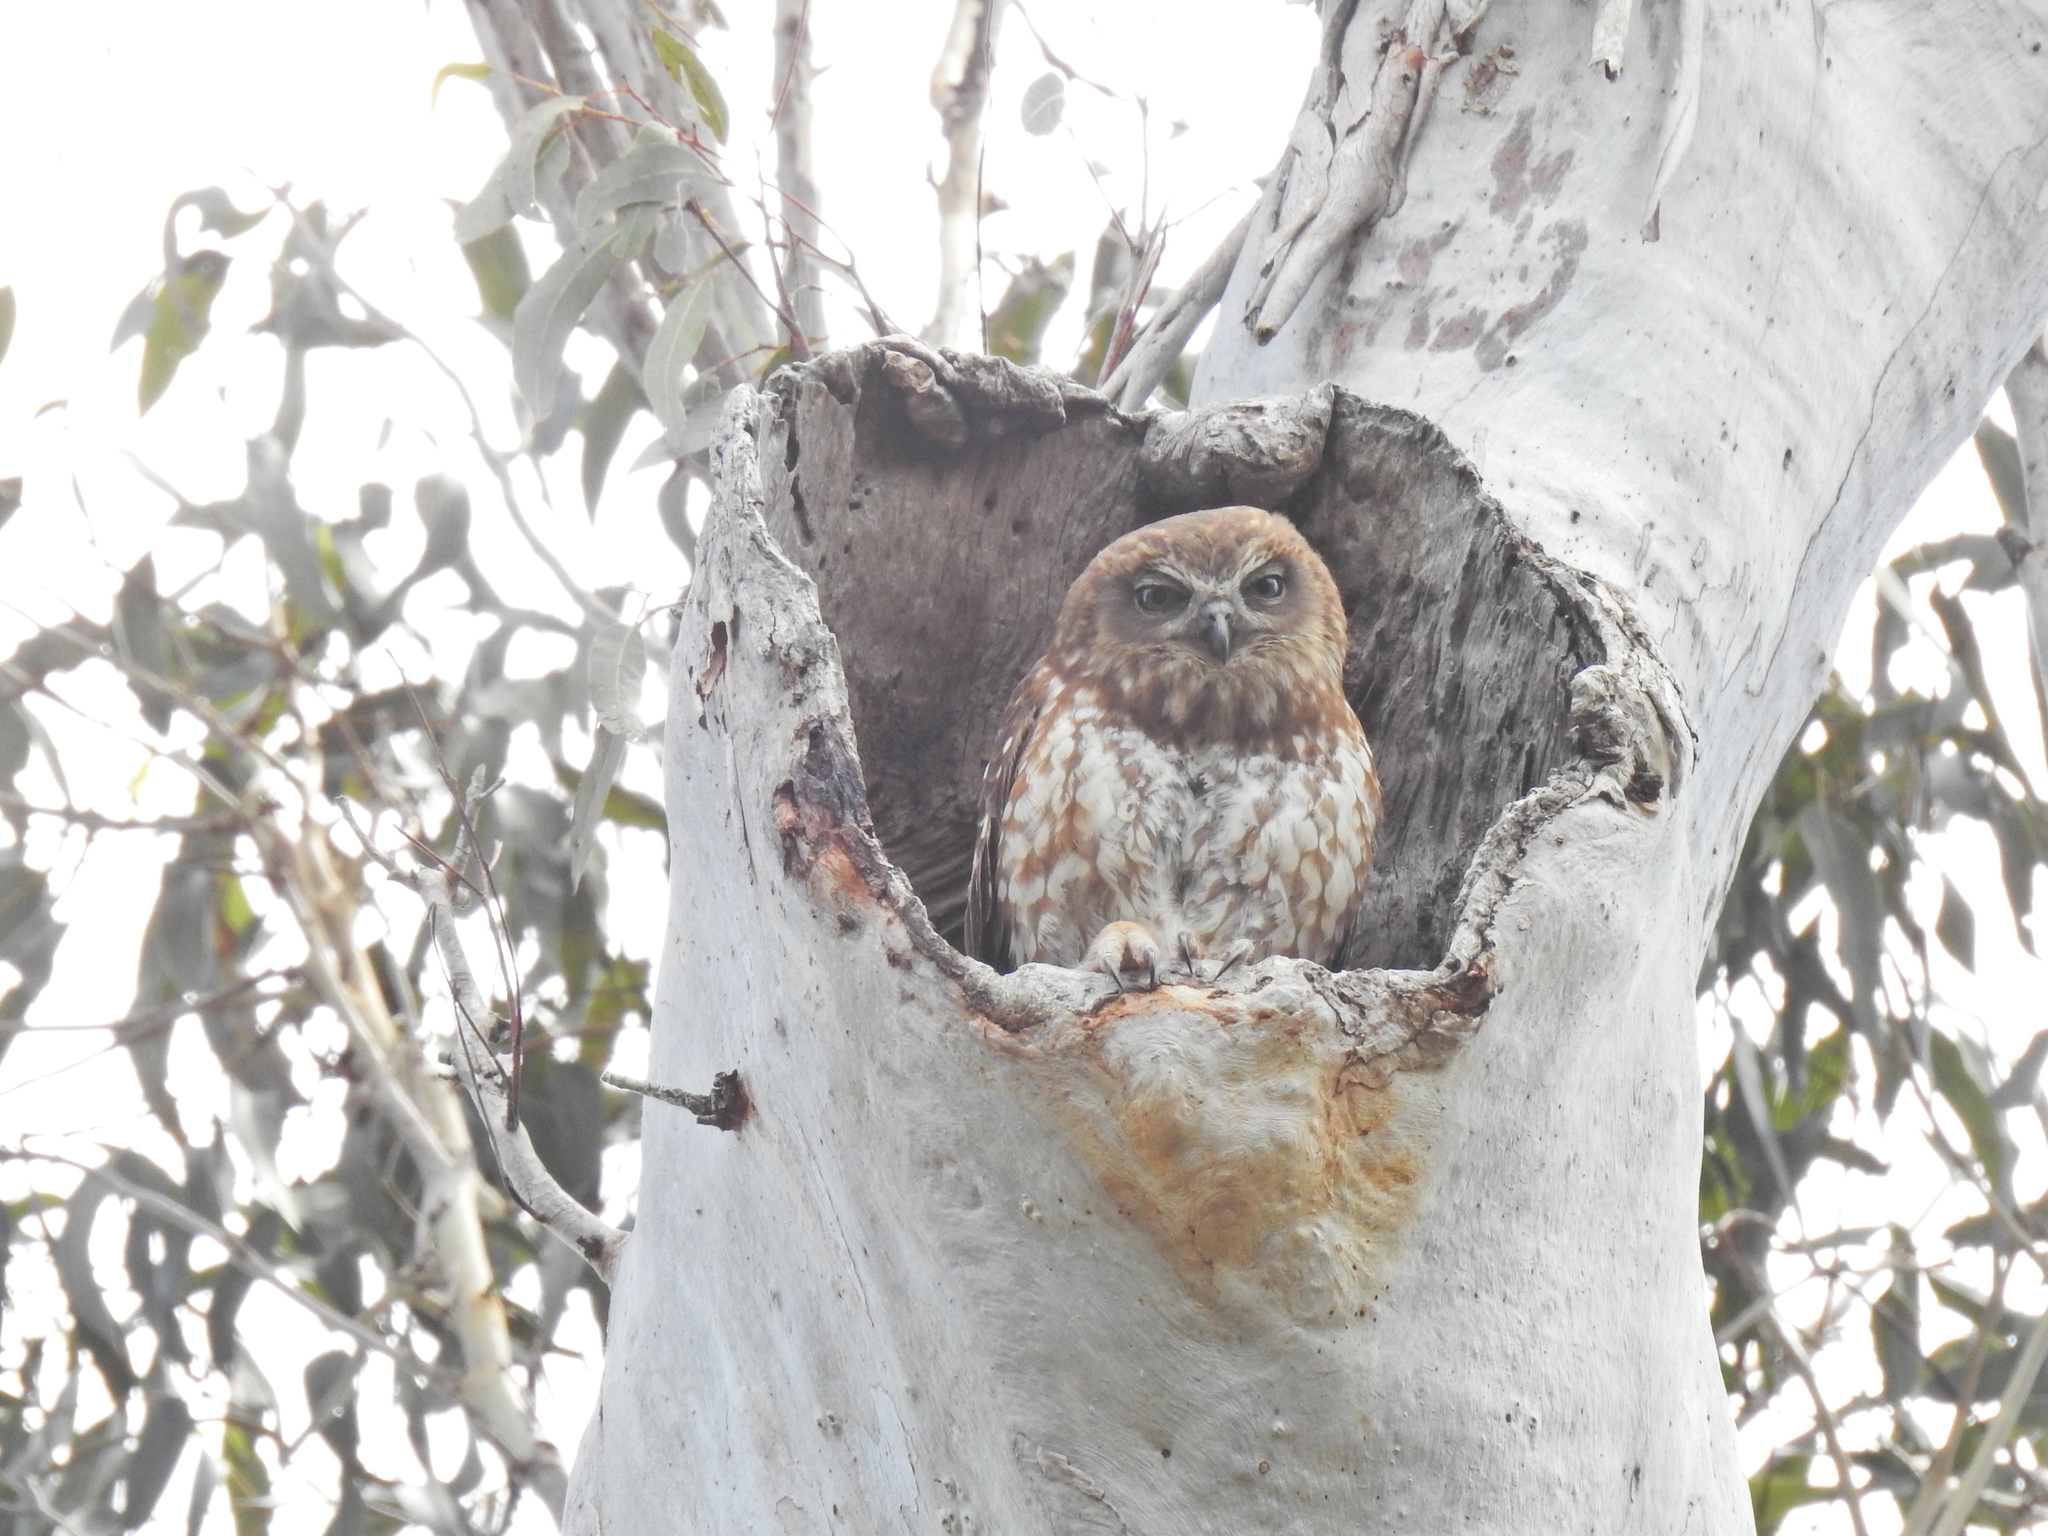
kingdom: Animalia
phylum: Chordata
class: Aves
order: Strigiformes
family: Strigidae
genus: Ninox
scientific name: Ninox boobook
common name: Southern boobook
